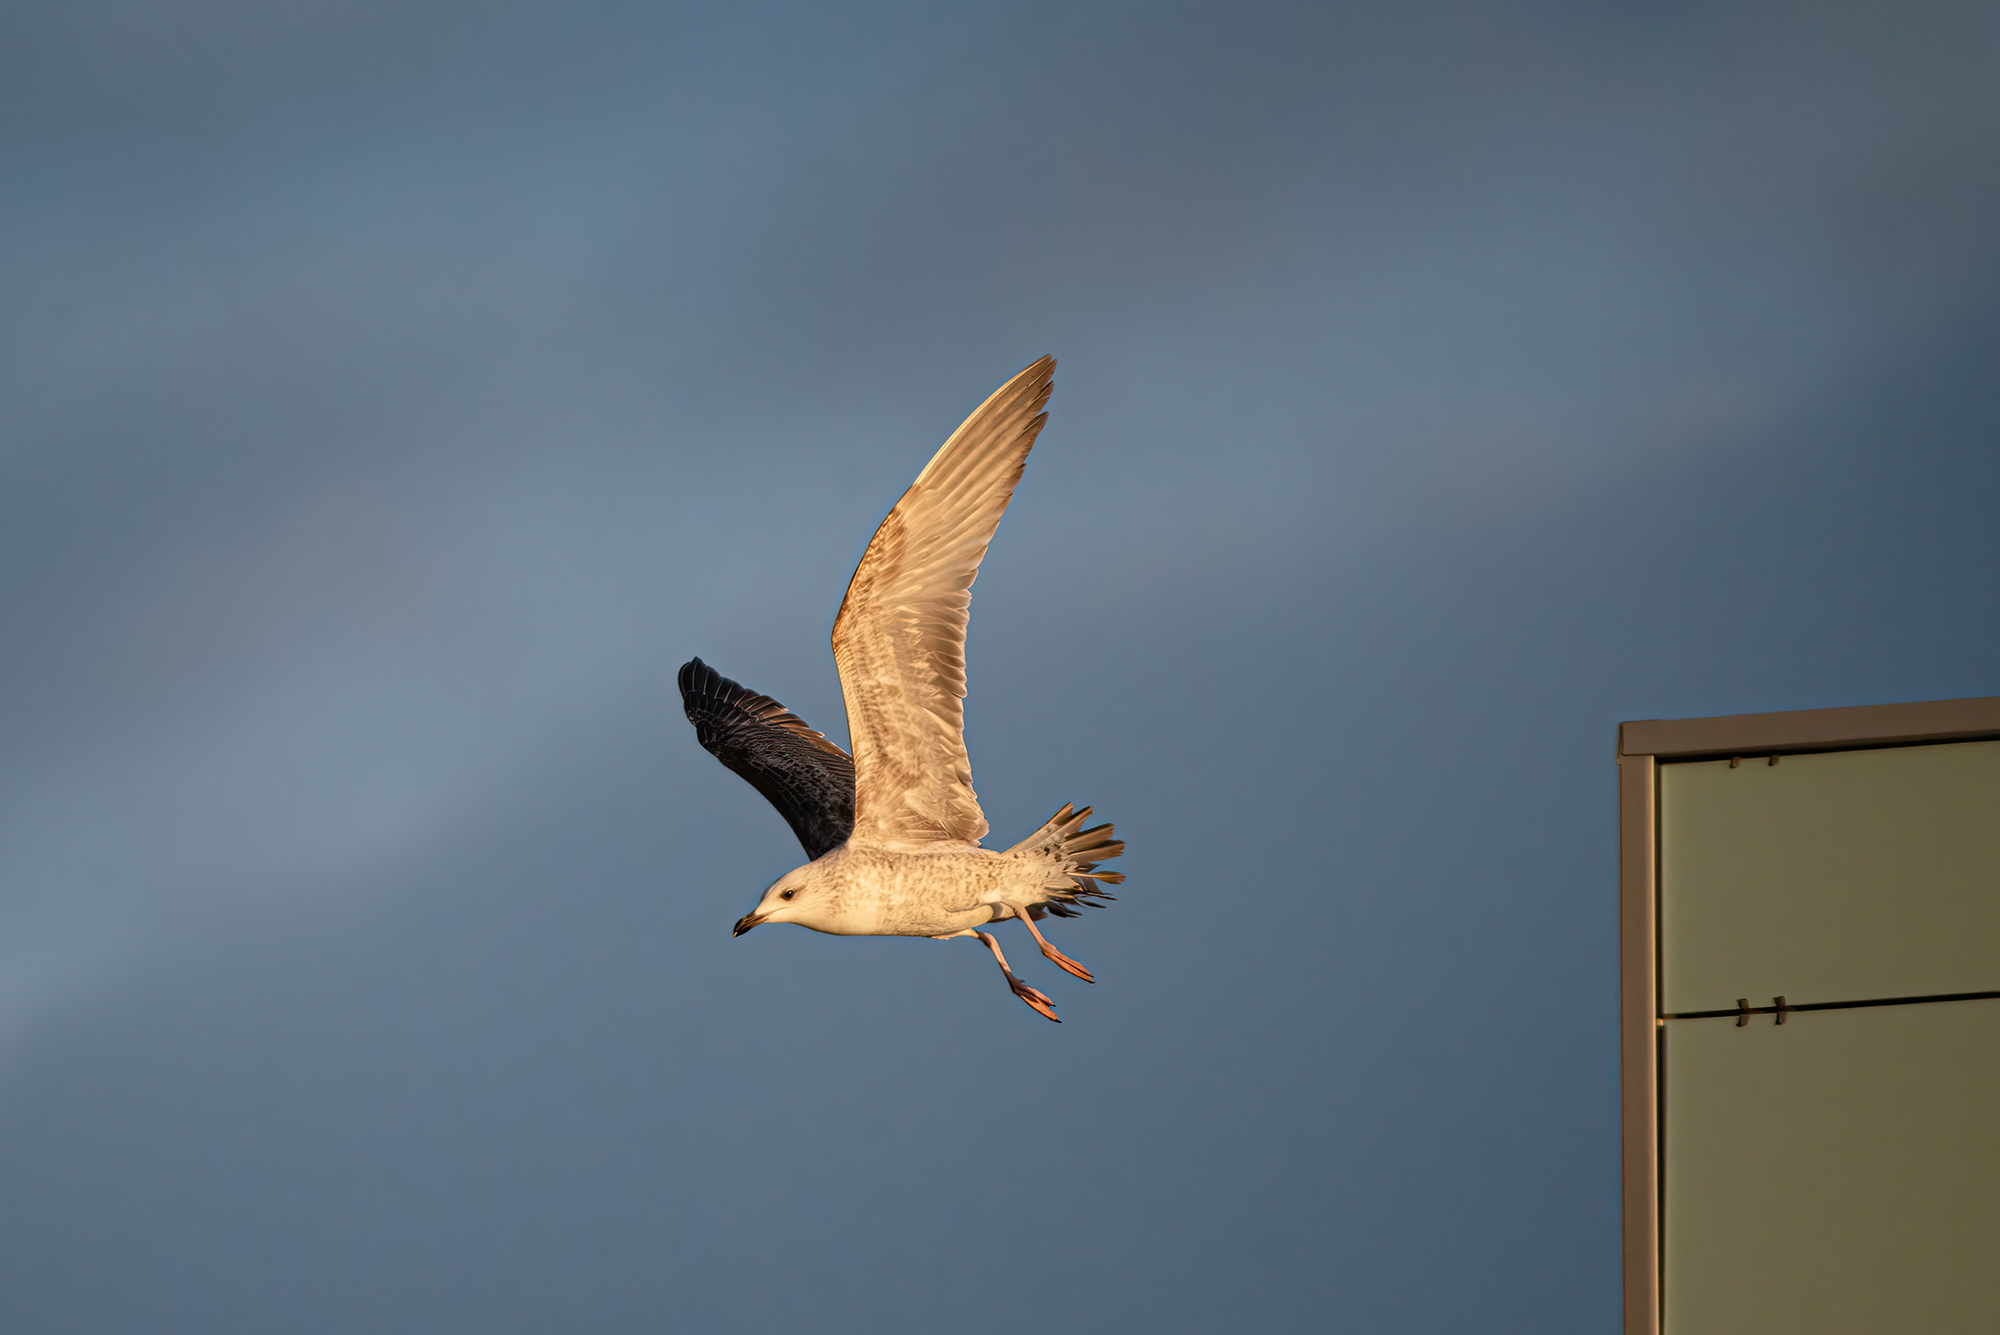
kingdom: Animalia
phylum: Chordata
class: Aves
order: Charadriiformes
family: Laridae
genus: Larus
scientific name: Larus michahellis
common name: Yellow-legged gull
